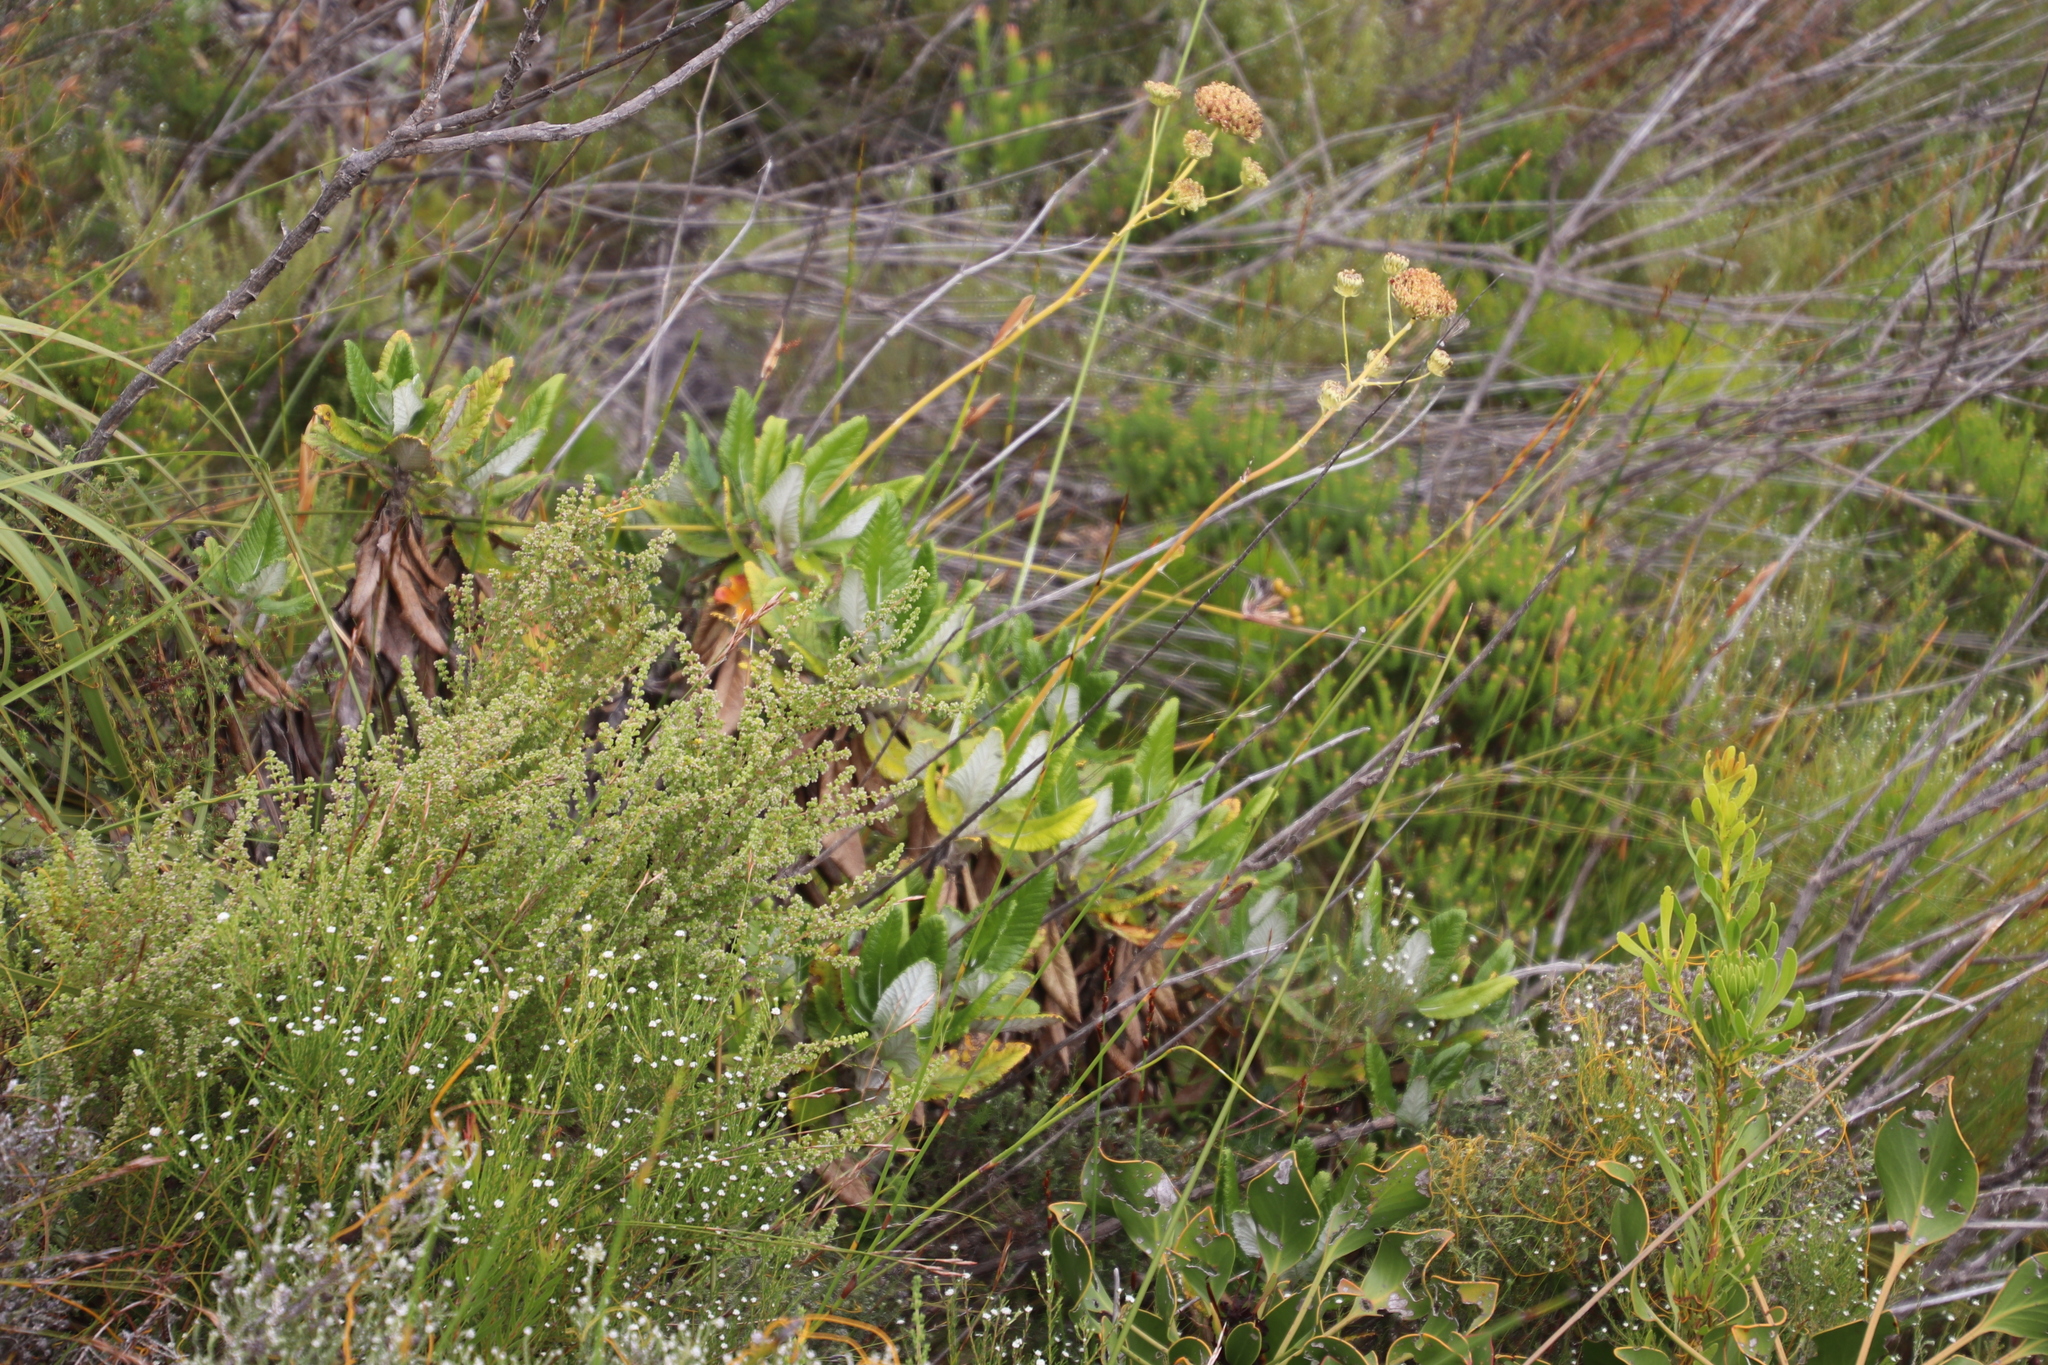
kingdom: Plantae
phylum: Tracheophyta
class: Magnoliopsida
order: Apiales
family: Apiaceae
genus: Hermas
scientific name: Hermas villosa
